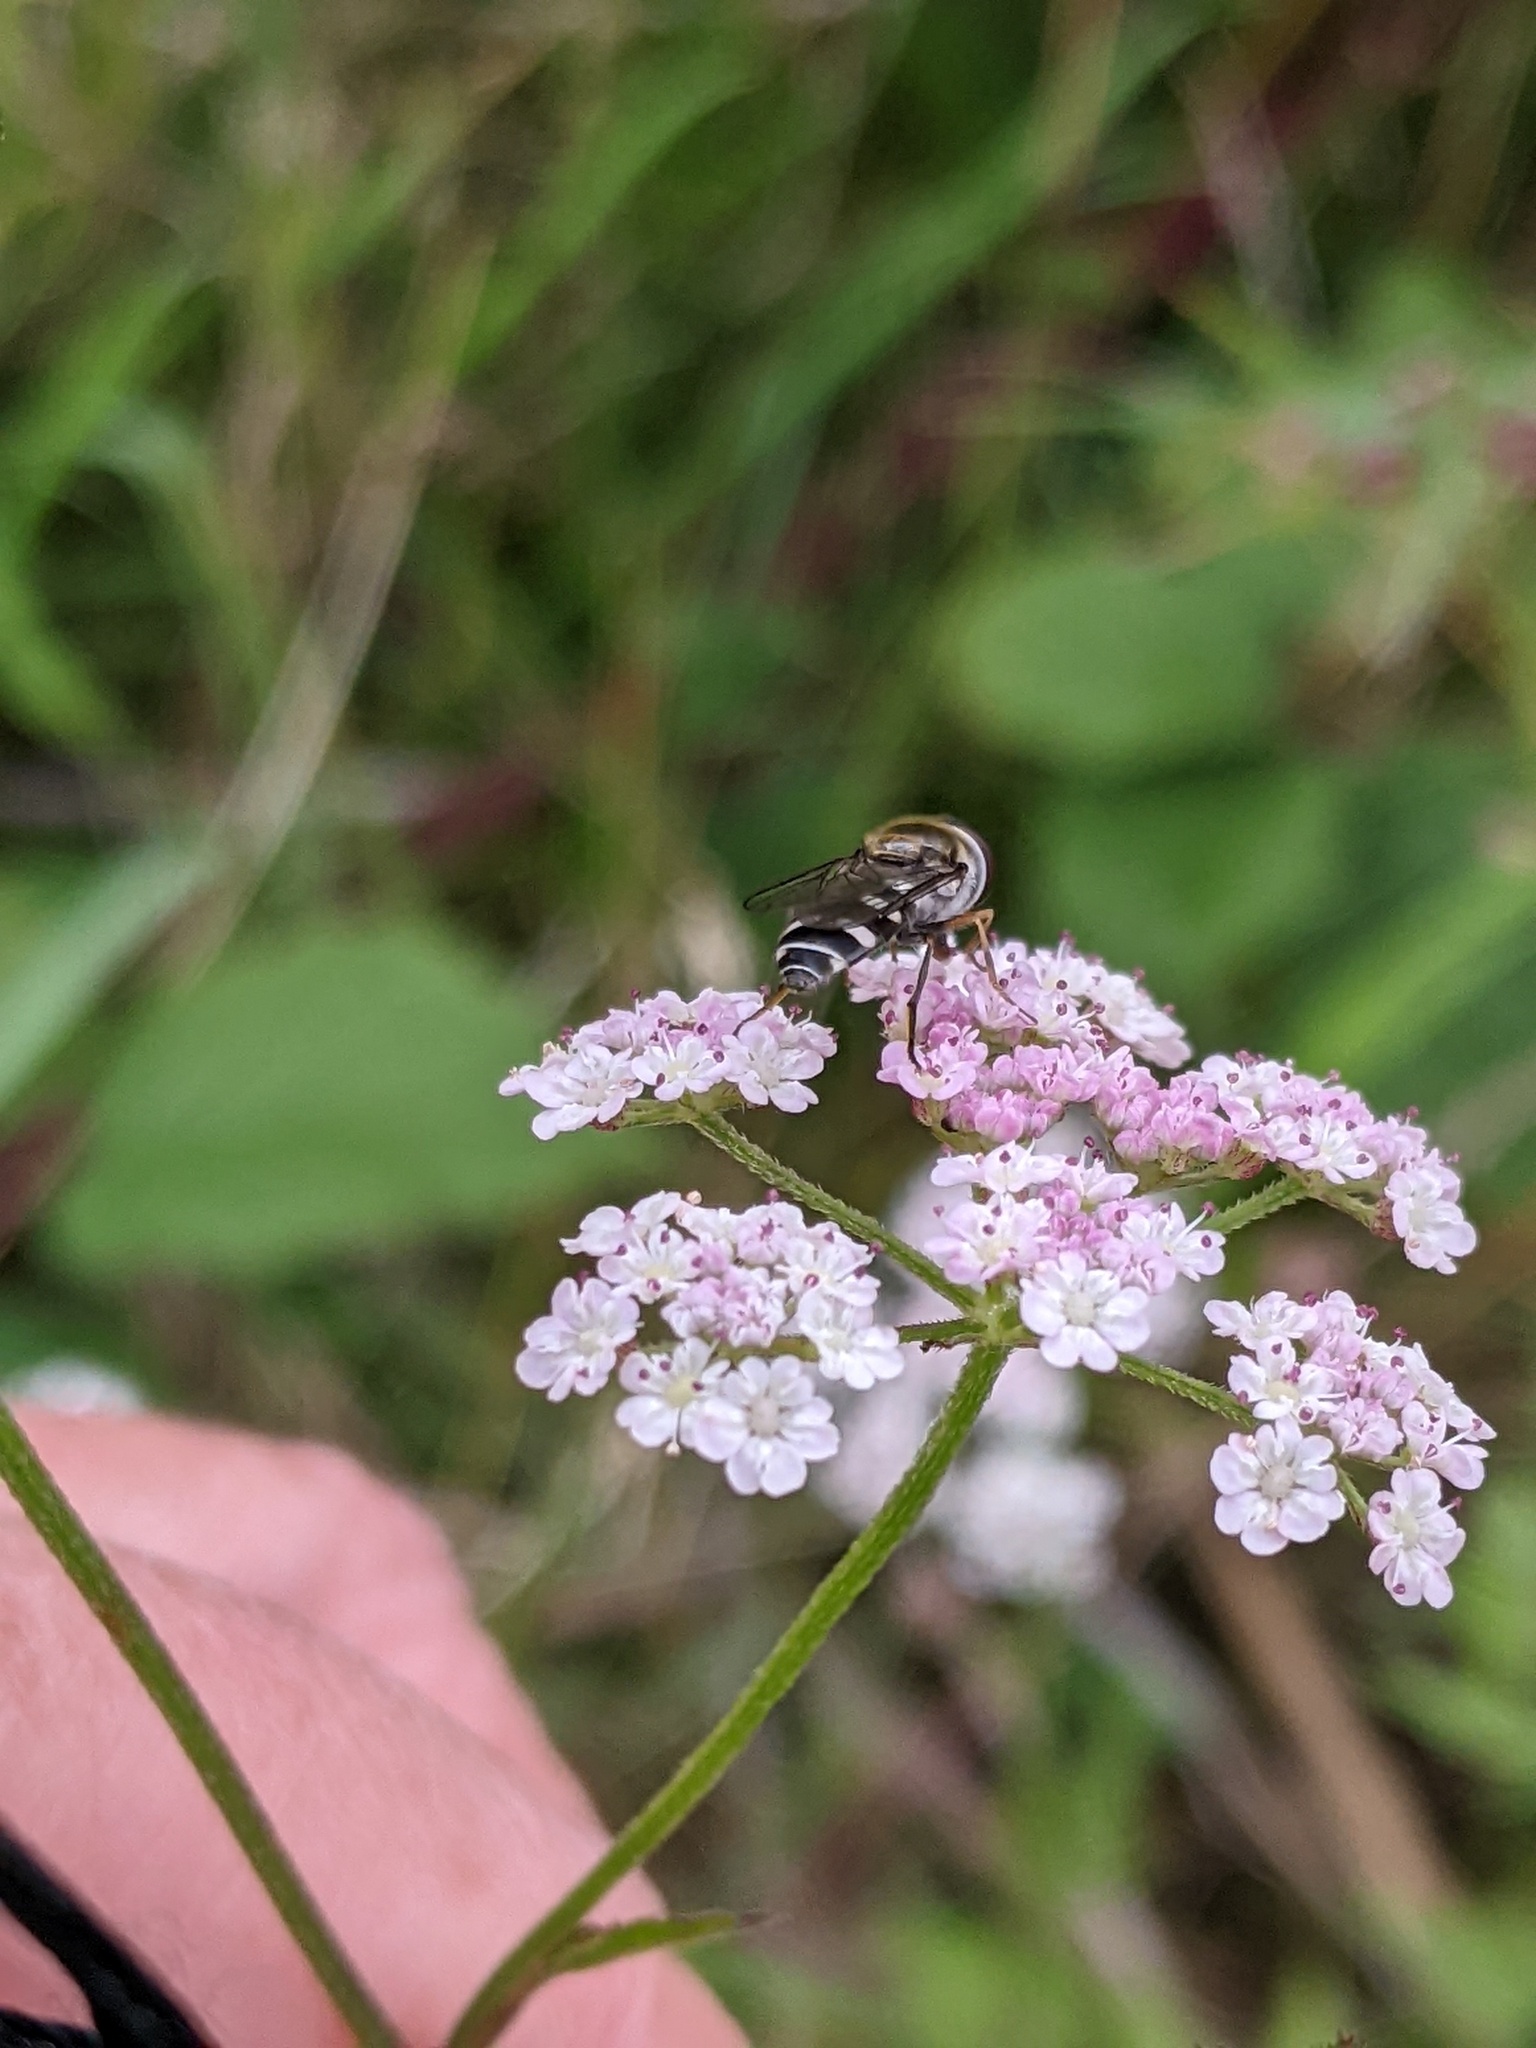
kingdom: Animalia
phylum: Arthropoda
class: Insecta
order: Diptera
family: Syrphidae
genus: Melangyna
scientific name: Melangyna
